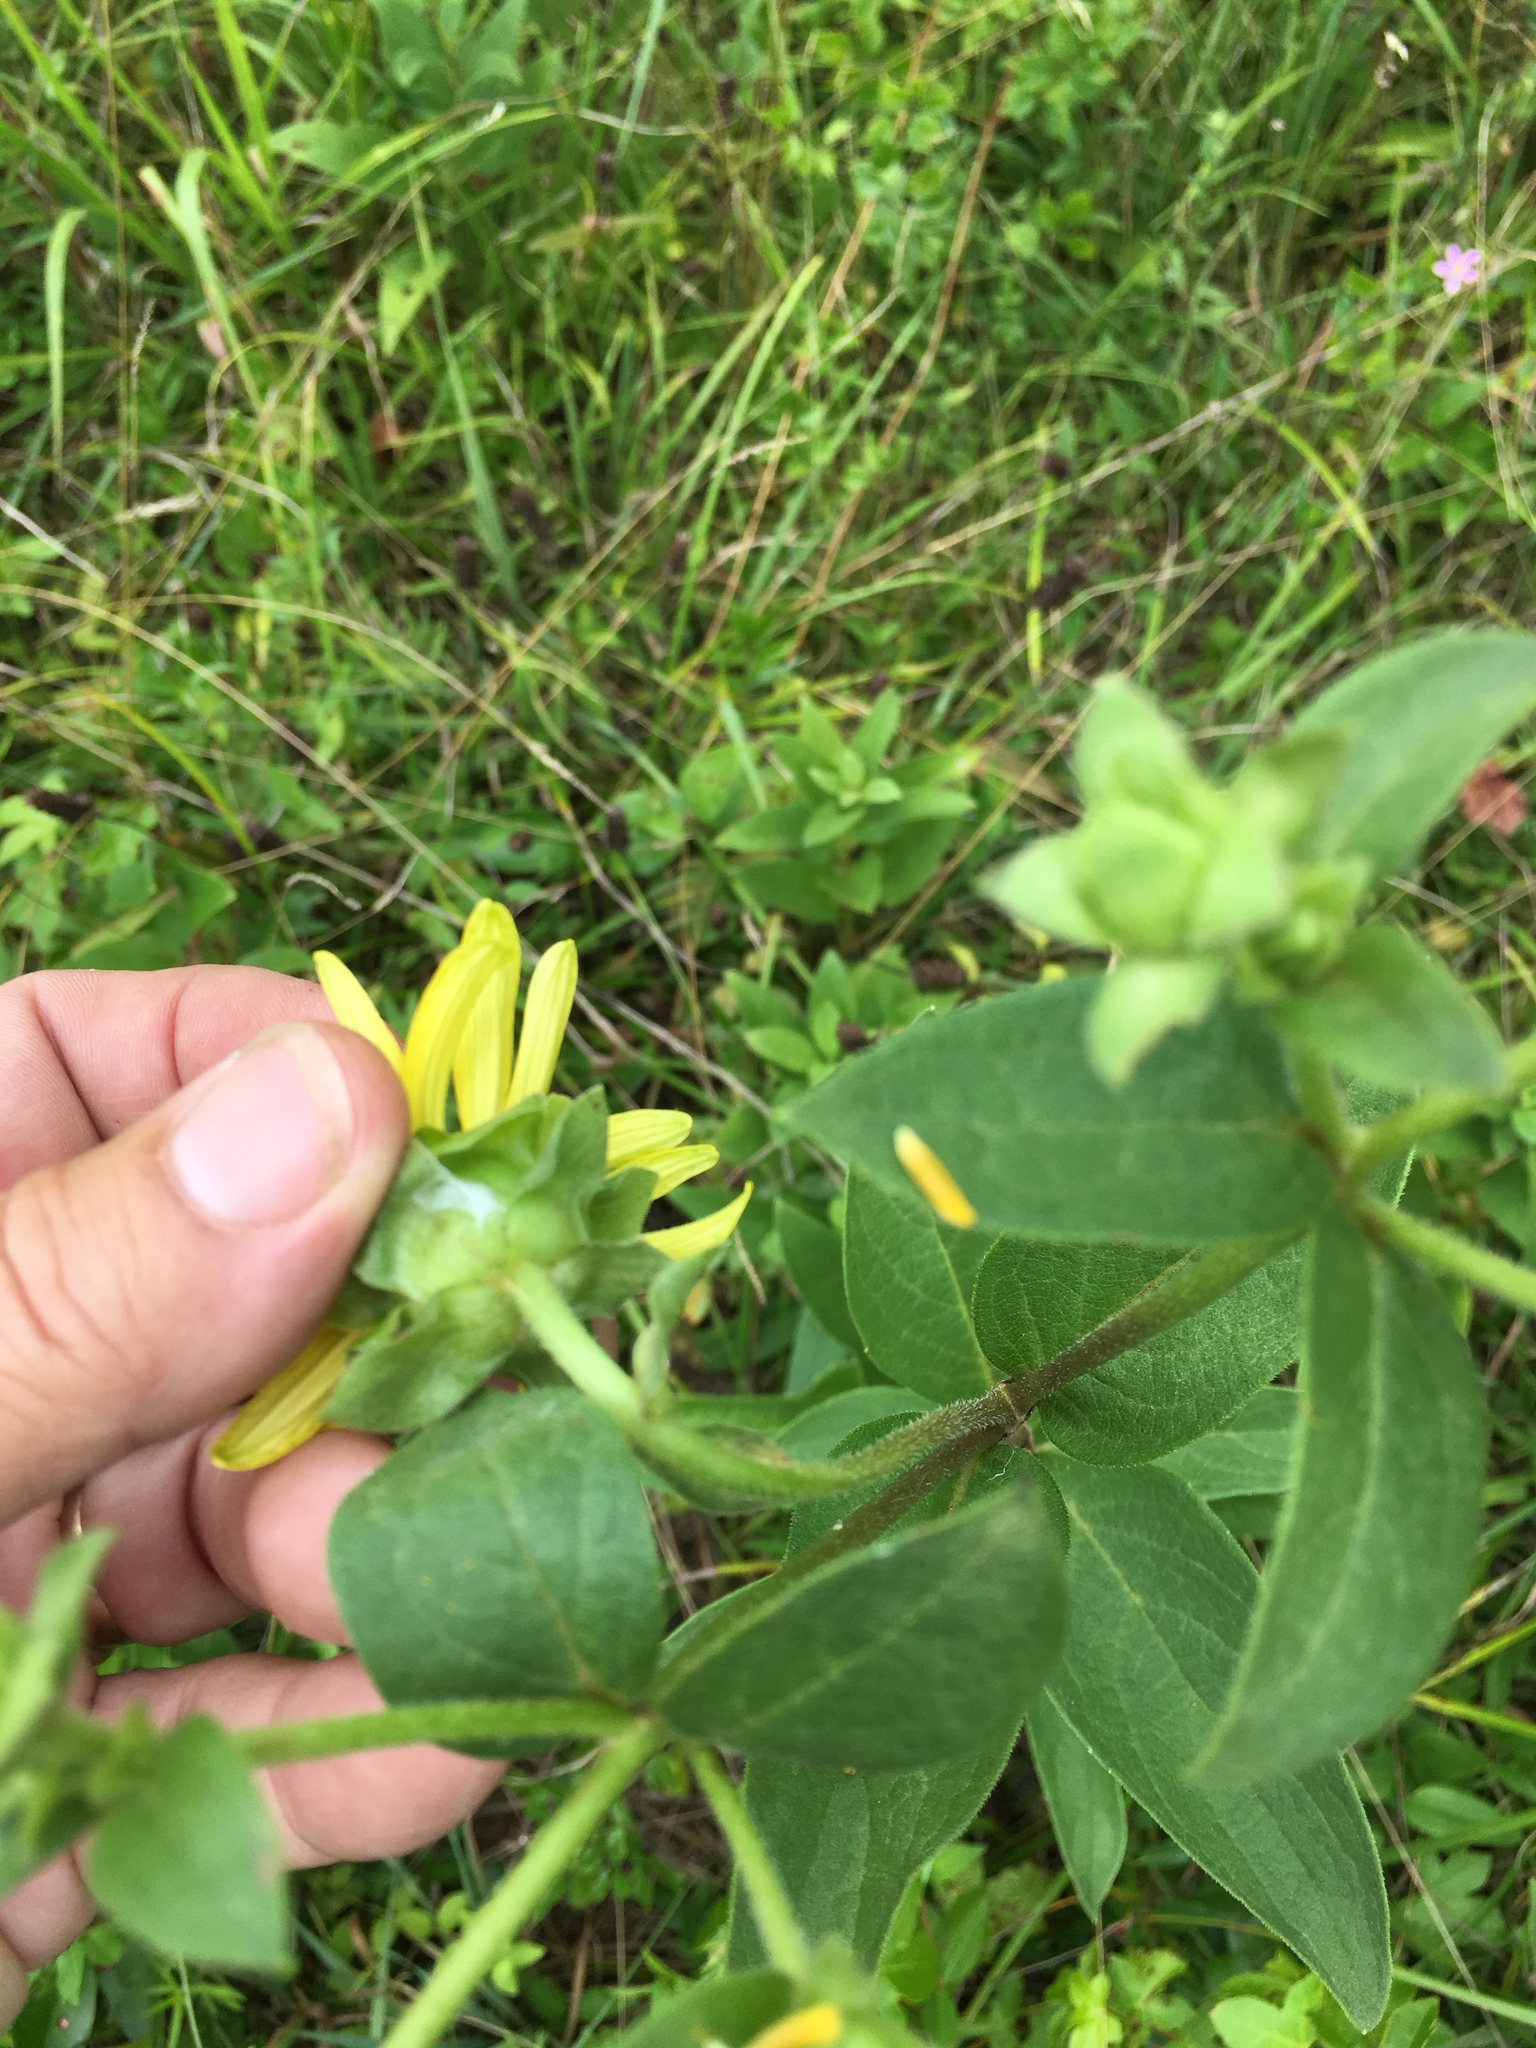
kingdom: Plantae
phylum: Tracheophyta
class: Magnoliopsida
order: Asterales
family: Asteraceae
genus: Silphium
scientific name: Silphium asteriscus
